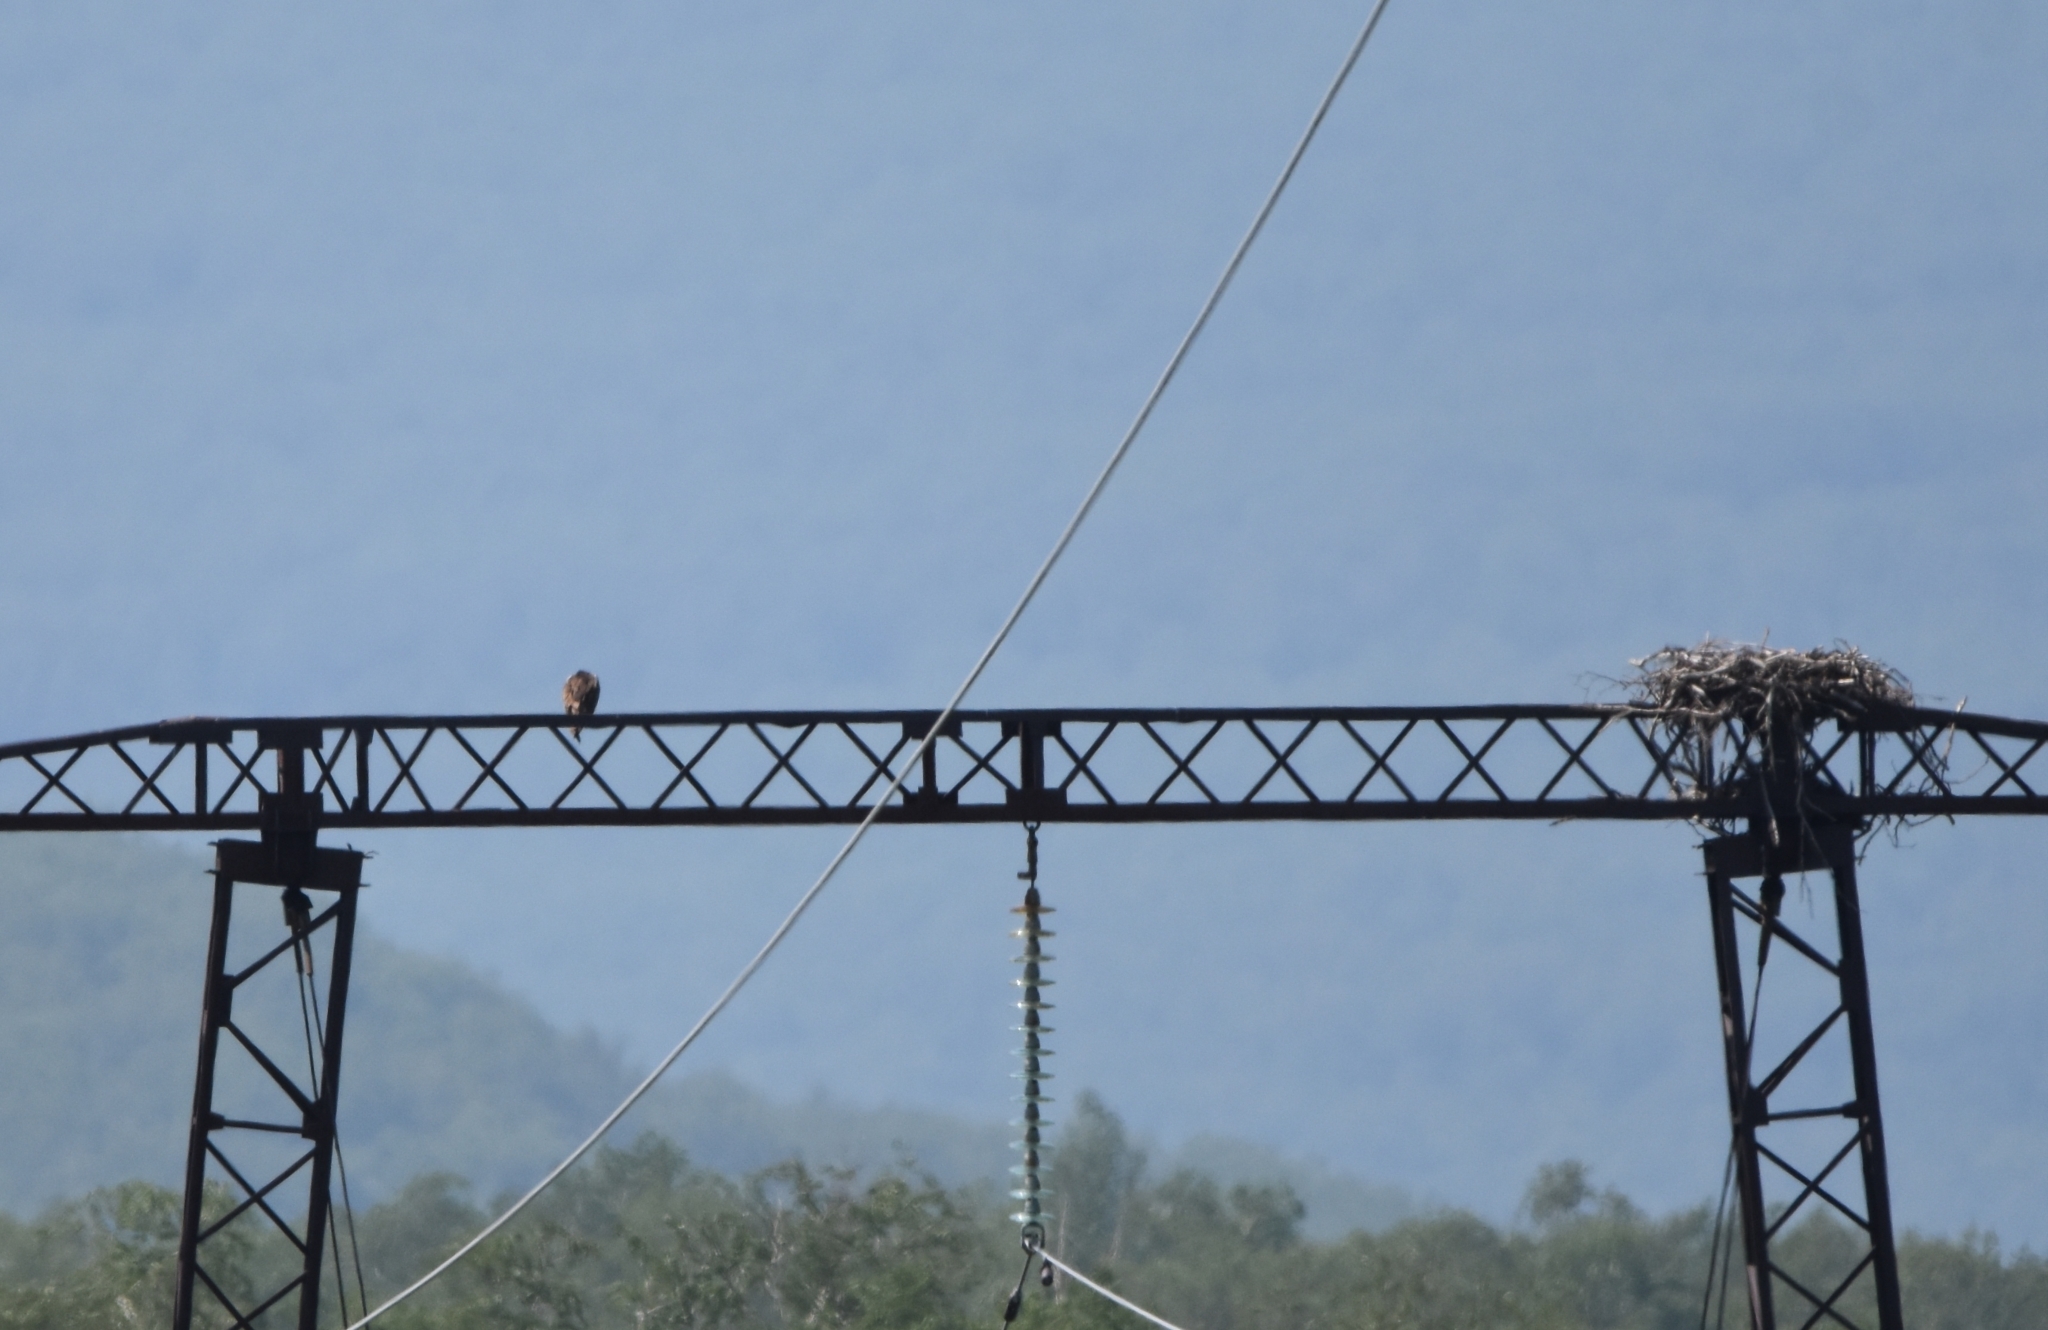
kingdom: Animalia
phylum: Chordata
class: Aves
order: Accipitriformes
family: Pandionidae
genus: Pandion
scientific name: Pandion haliaetus
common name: Osprey
